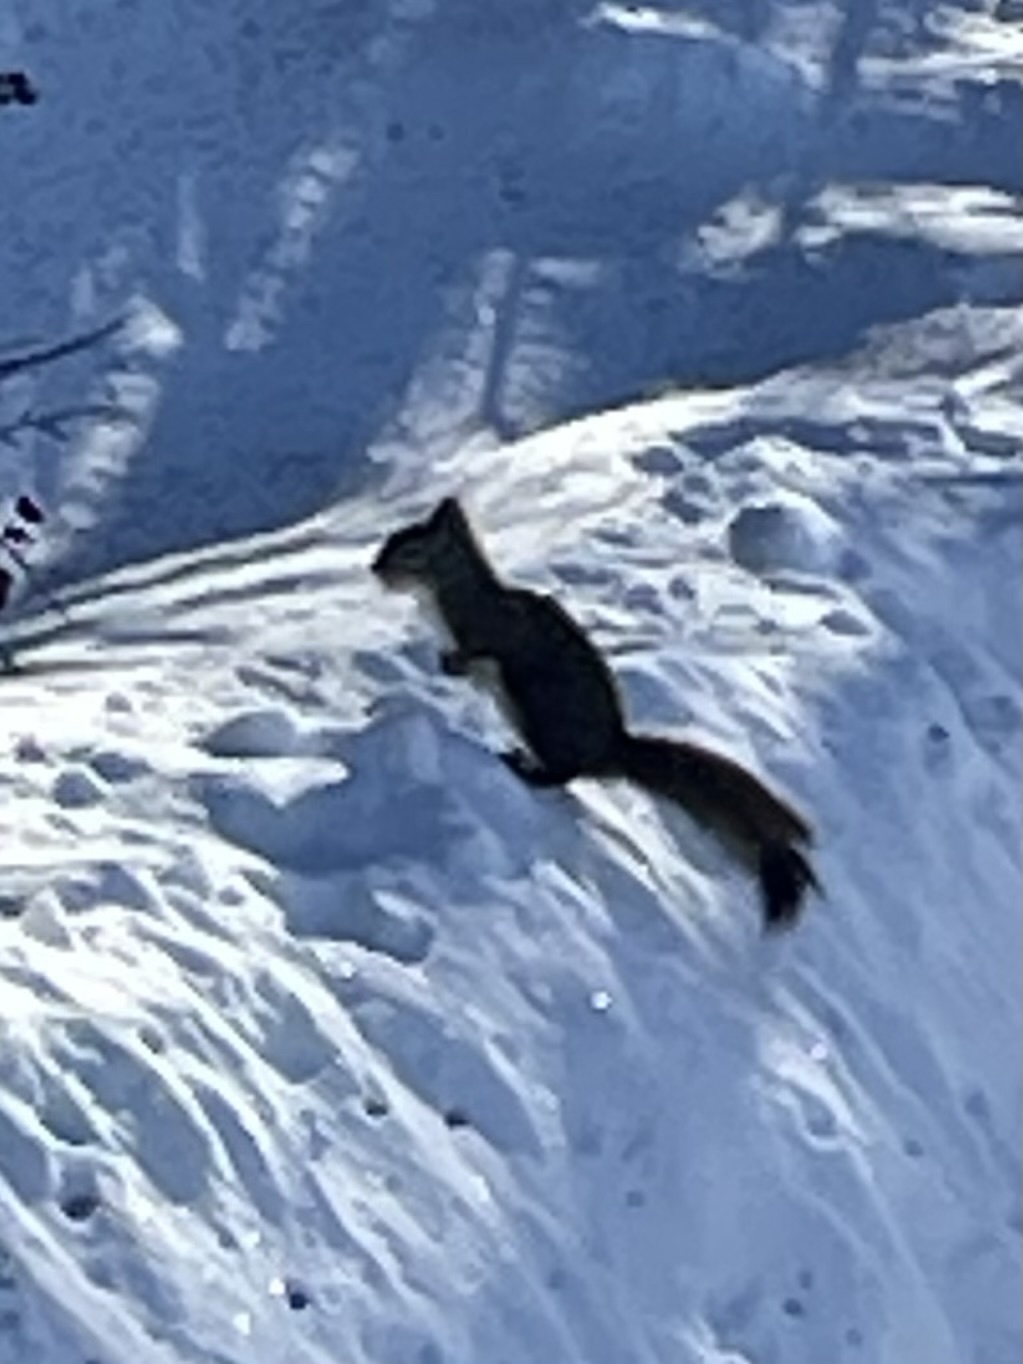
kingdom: Animalia
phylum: Chordata
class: Mammalia
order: Rodentia
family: Sciuridae
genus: Tamiasciurus
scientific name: Tamiasciurus hudsonicus
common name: Red squirrel
